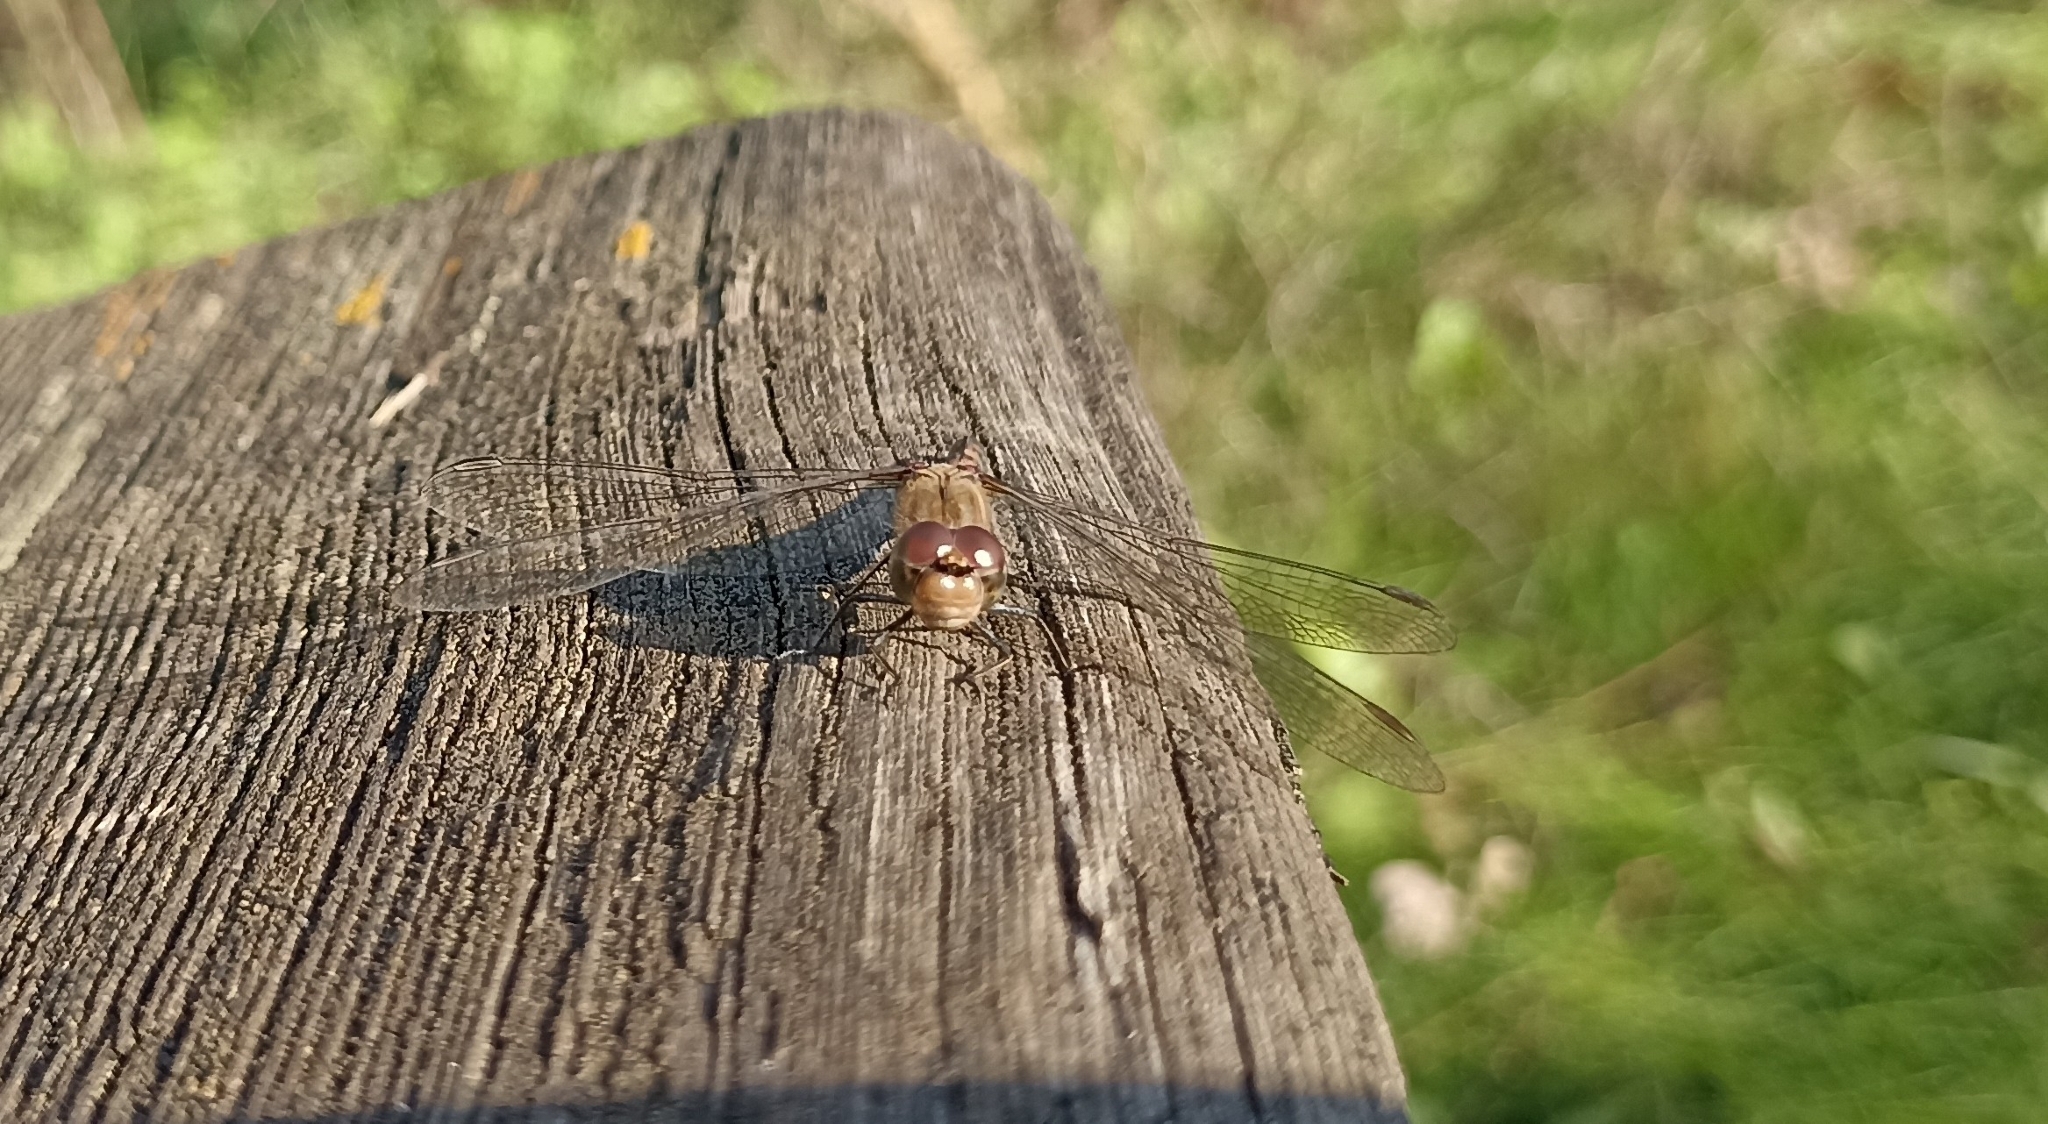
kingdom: Animalia
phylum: Arthropoda
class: Insecta
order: Odonata
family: Libellulidae
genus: Sympetrum
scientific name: Sympetrum striolatum
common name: Common darter
